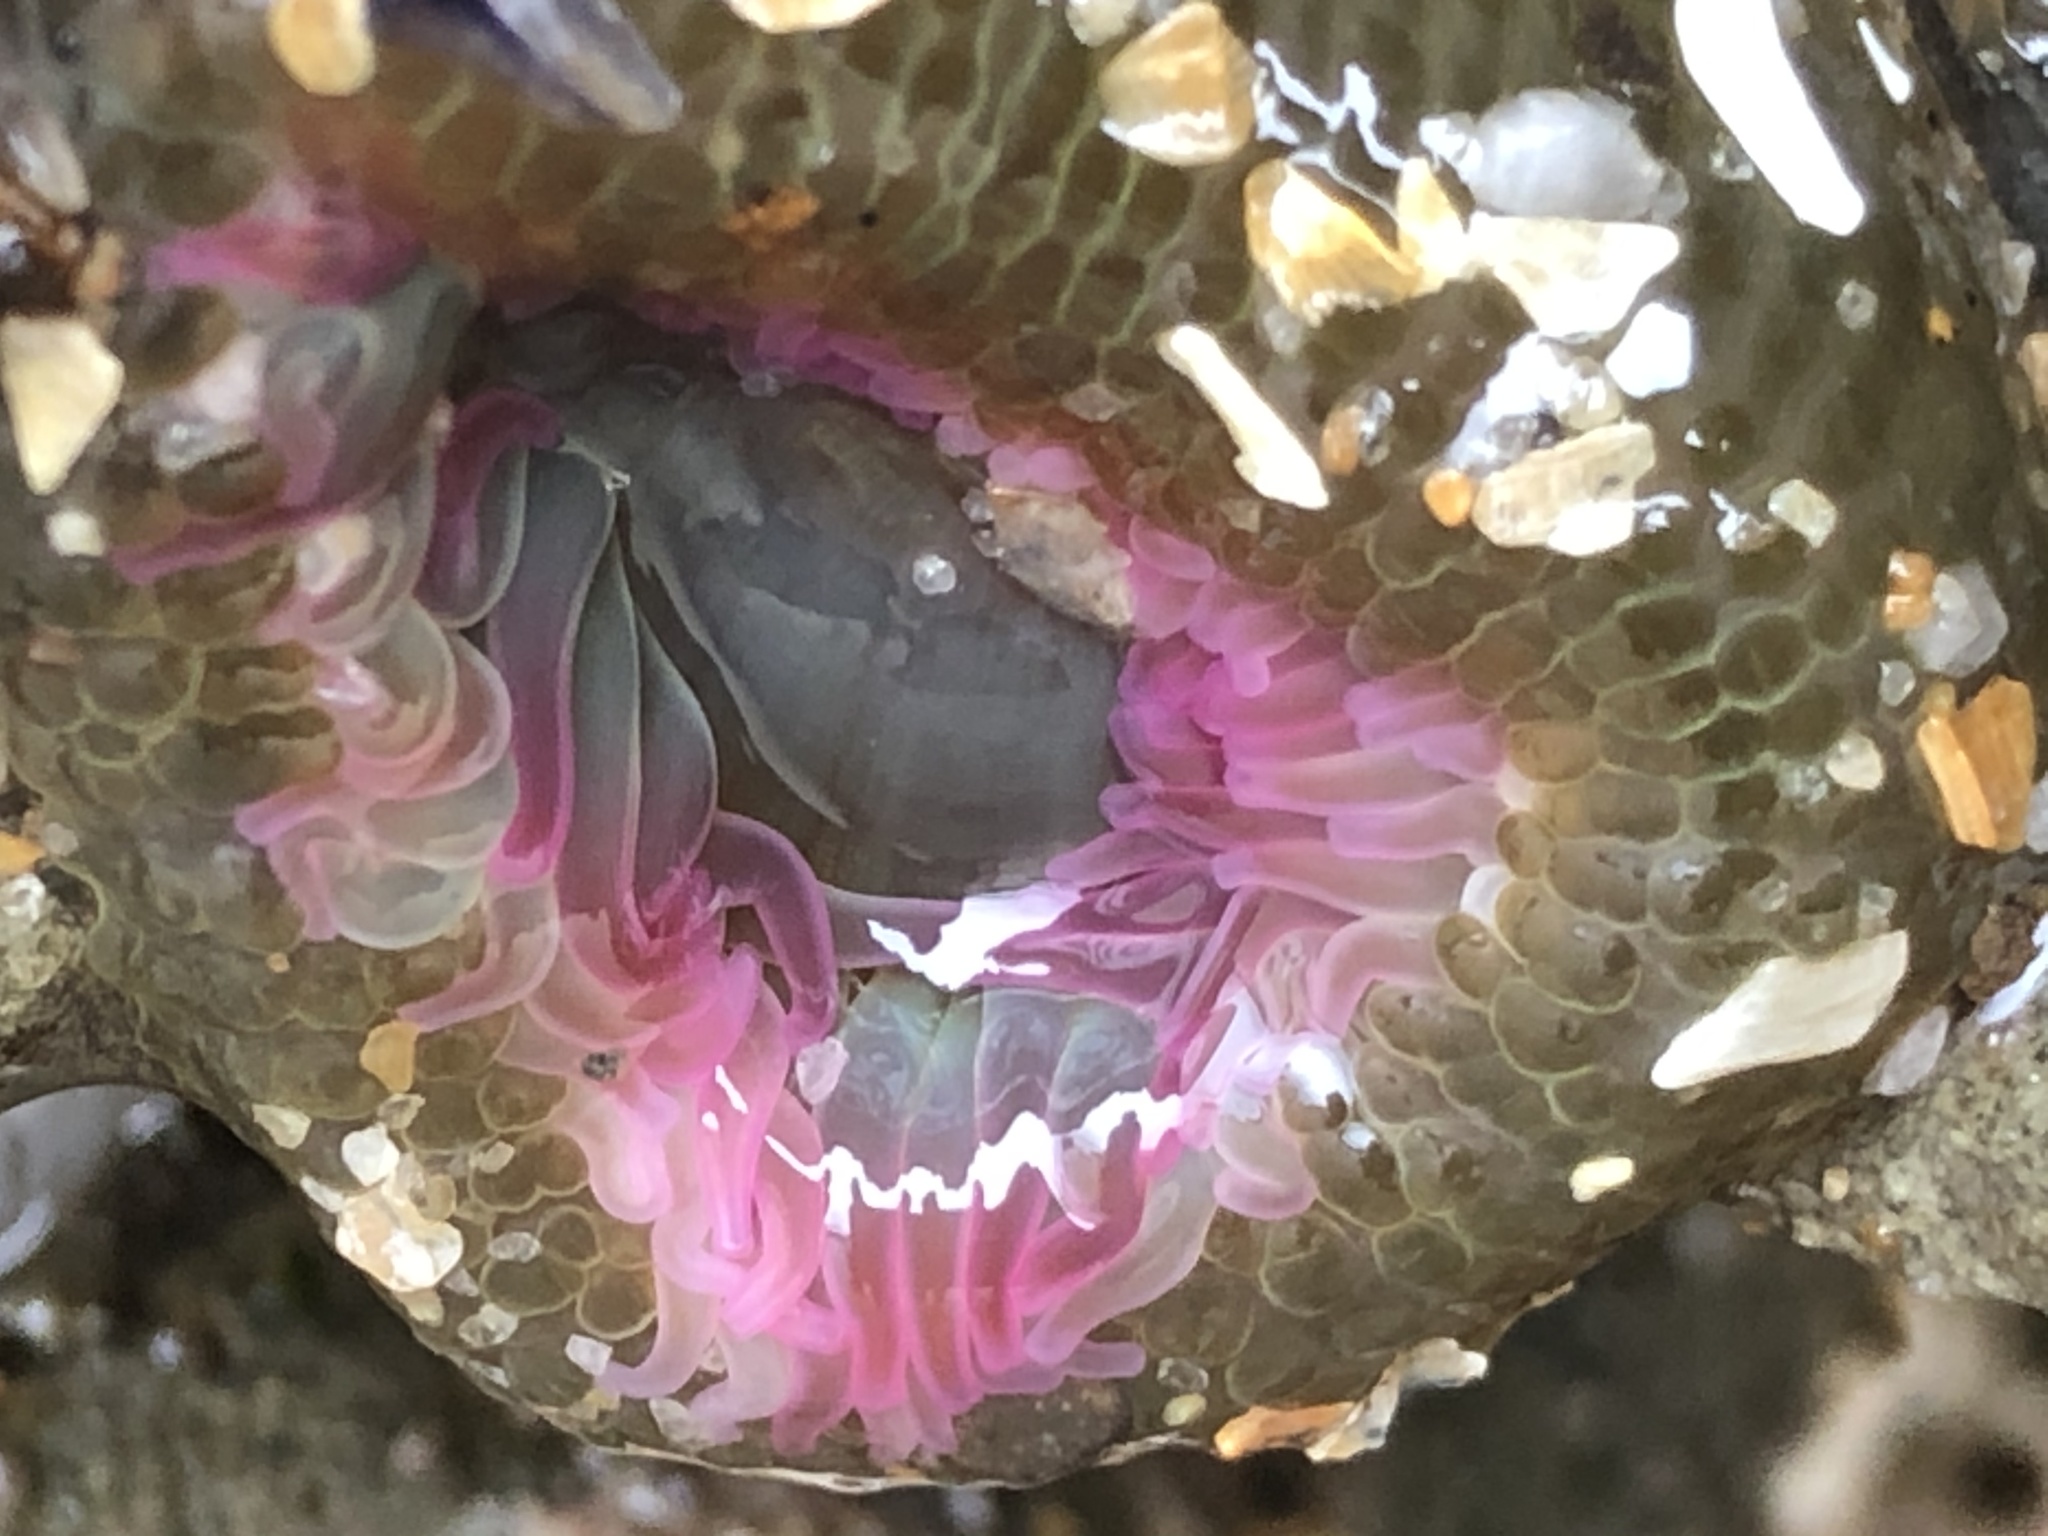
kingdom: Animalia
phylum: Cnidaria
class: Anthozoa
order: Actiniaria
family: Actiniidae
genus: Anthopleura
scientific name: Anthopleura elegantissima
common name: Clonal anemone
